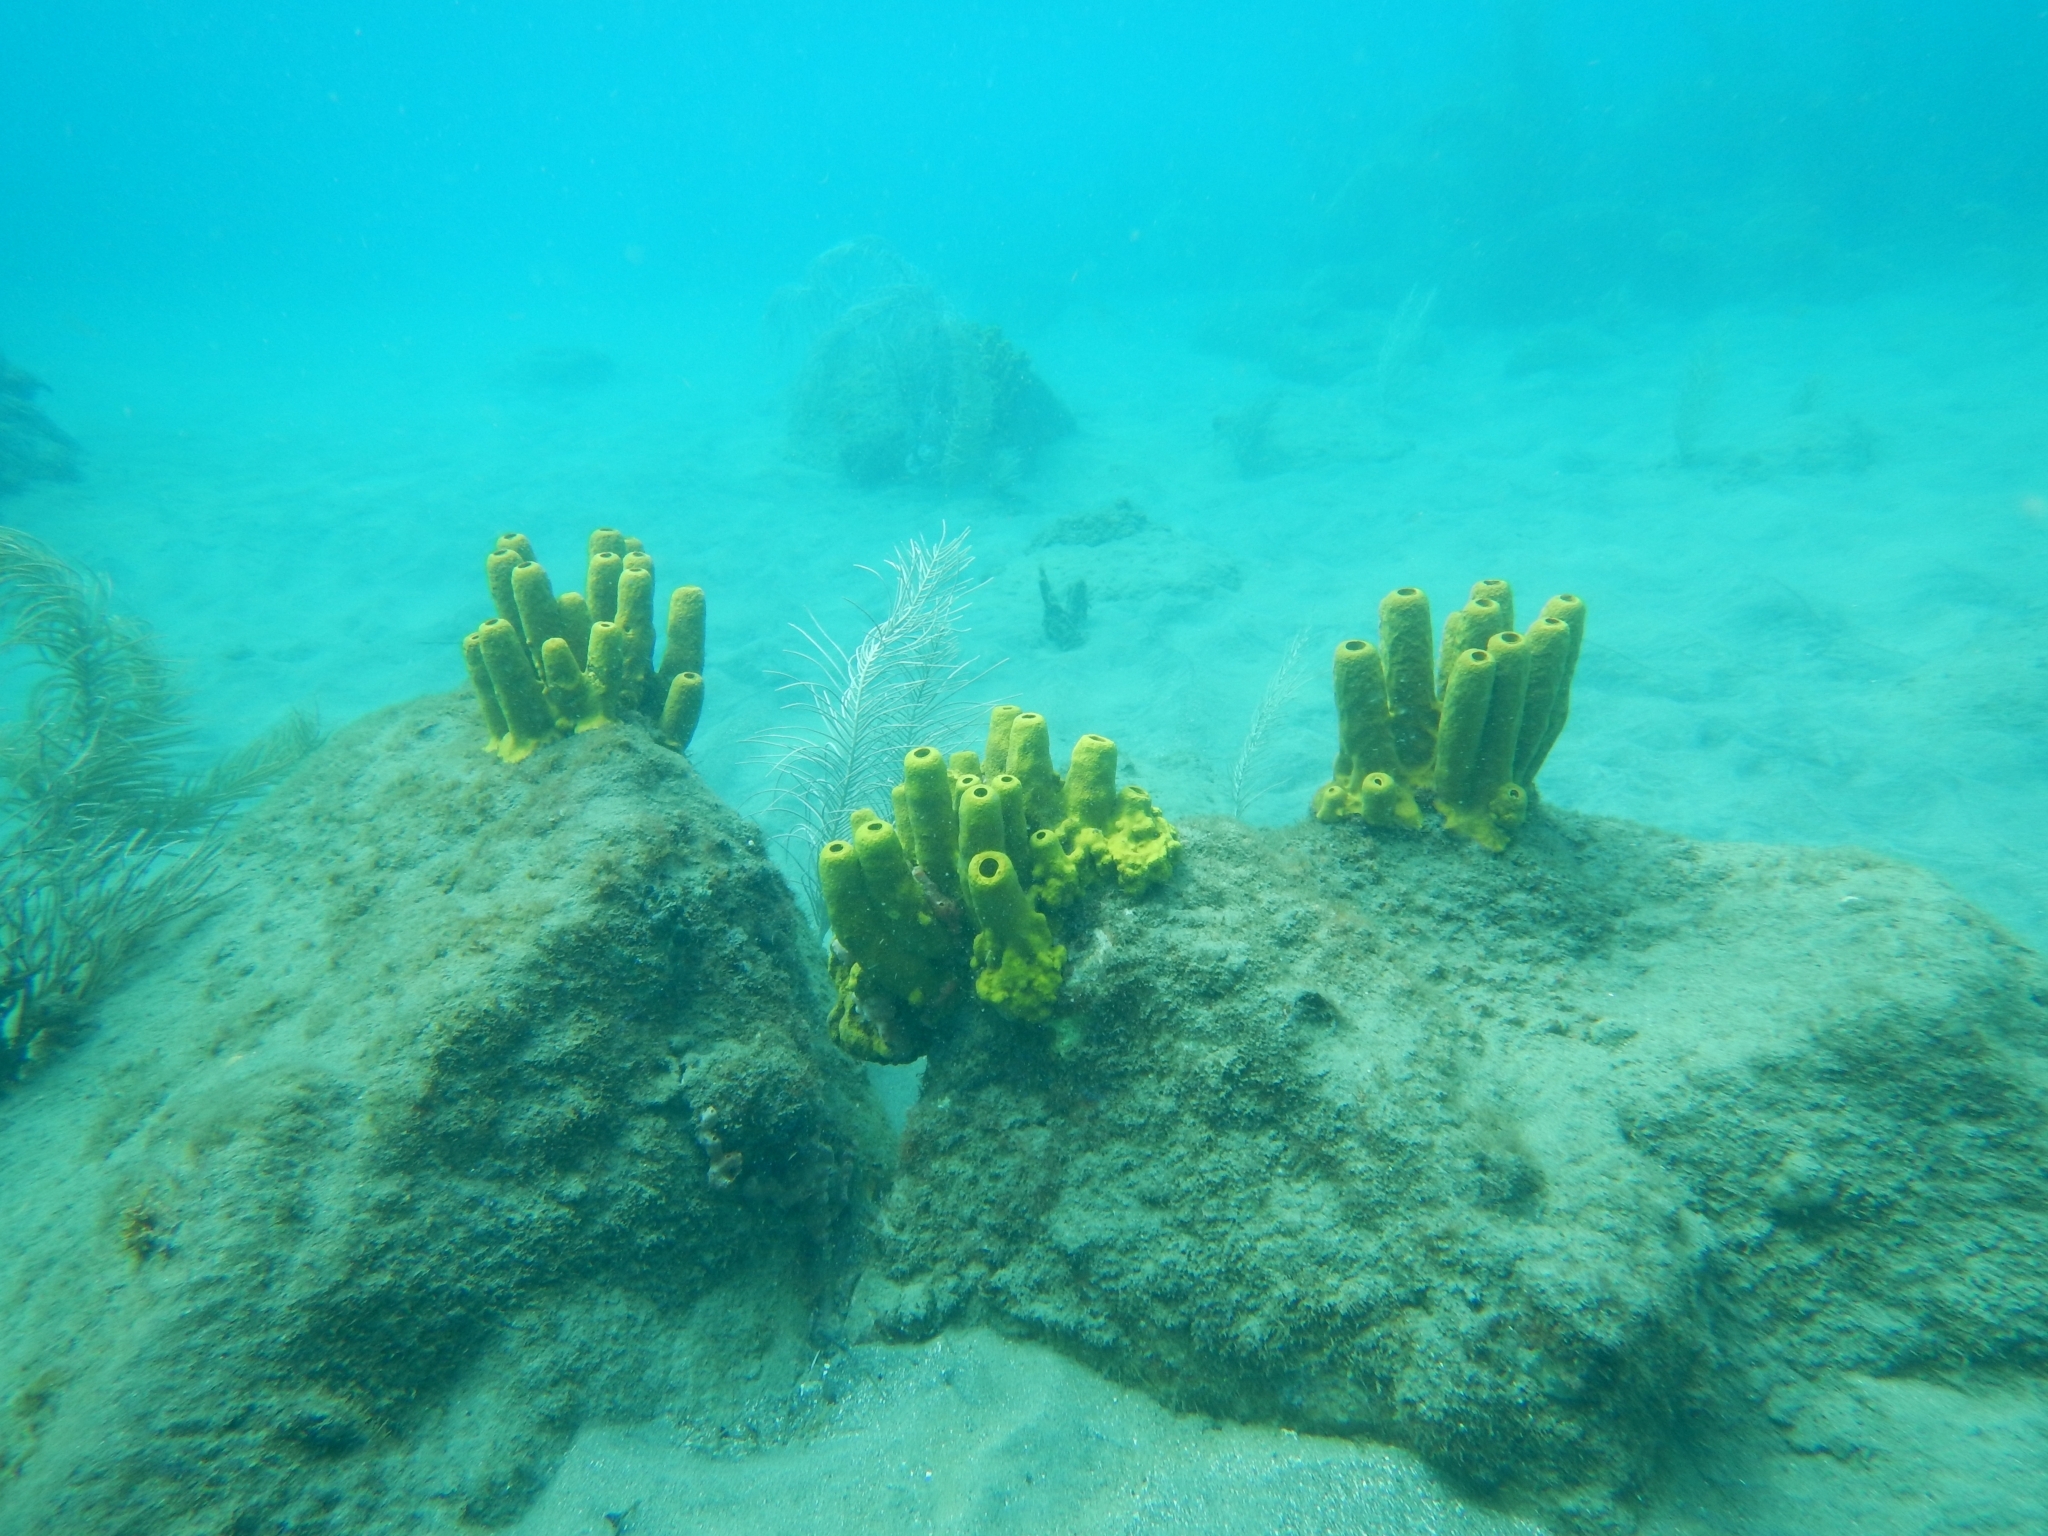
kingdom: Animalia
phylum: Porifera
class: Demospongiae
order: Verongiida
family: Aplysinidae
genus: Aplysina
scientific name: Aplysina fistularis
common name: Candle sponge
